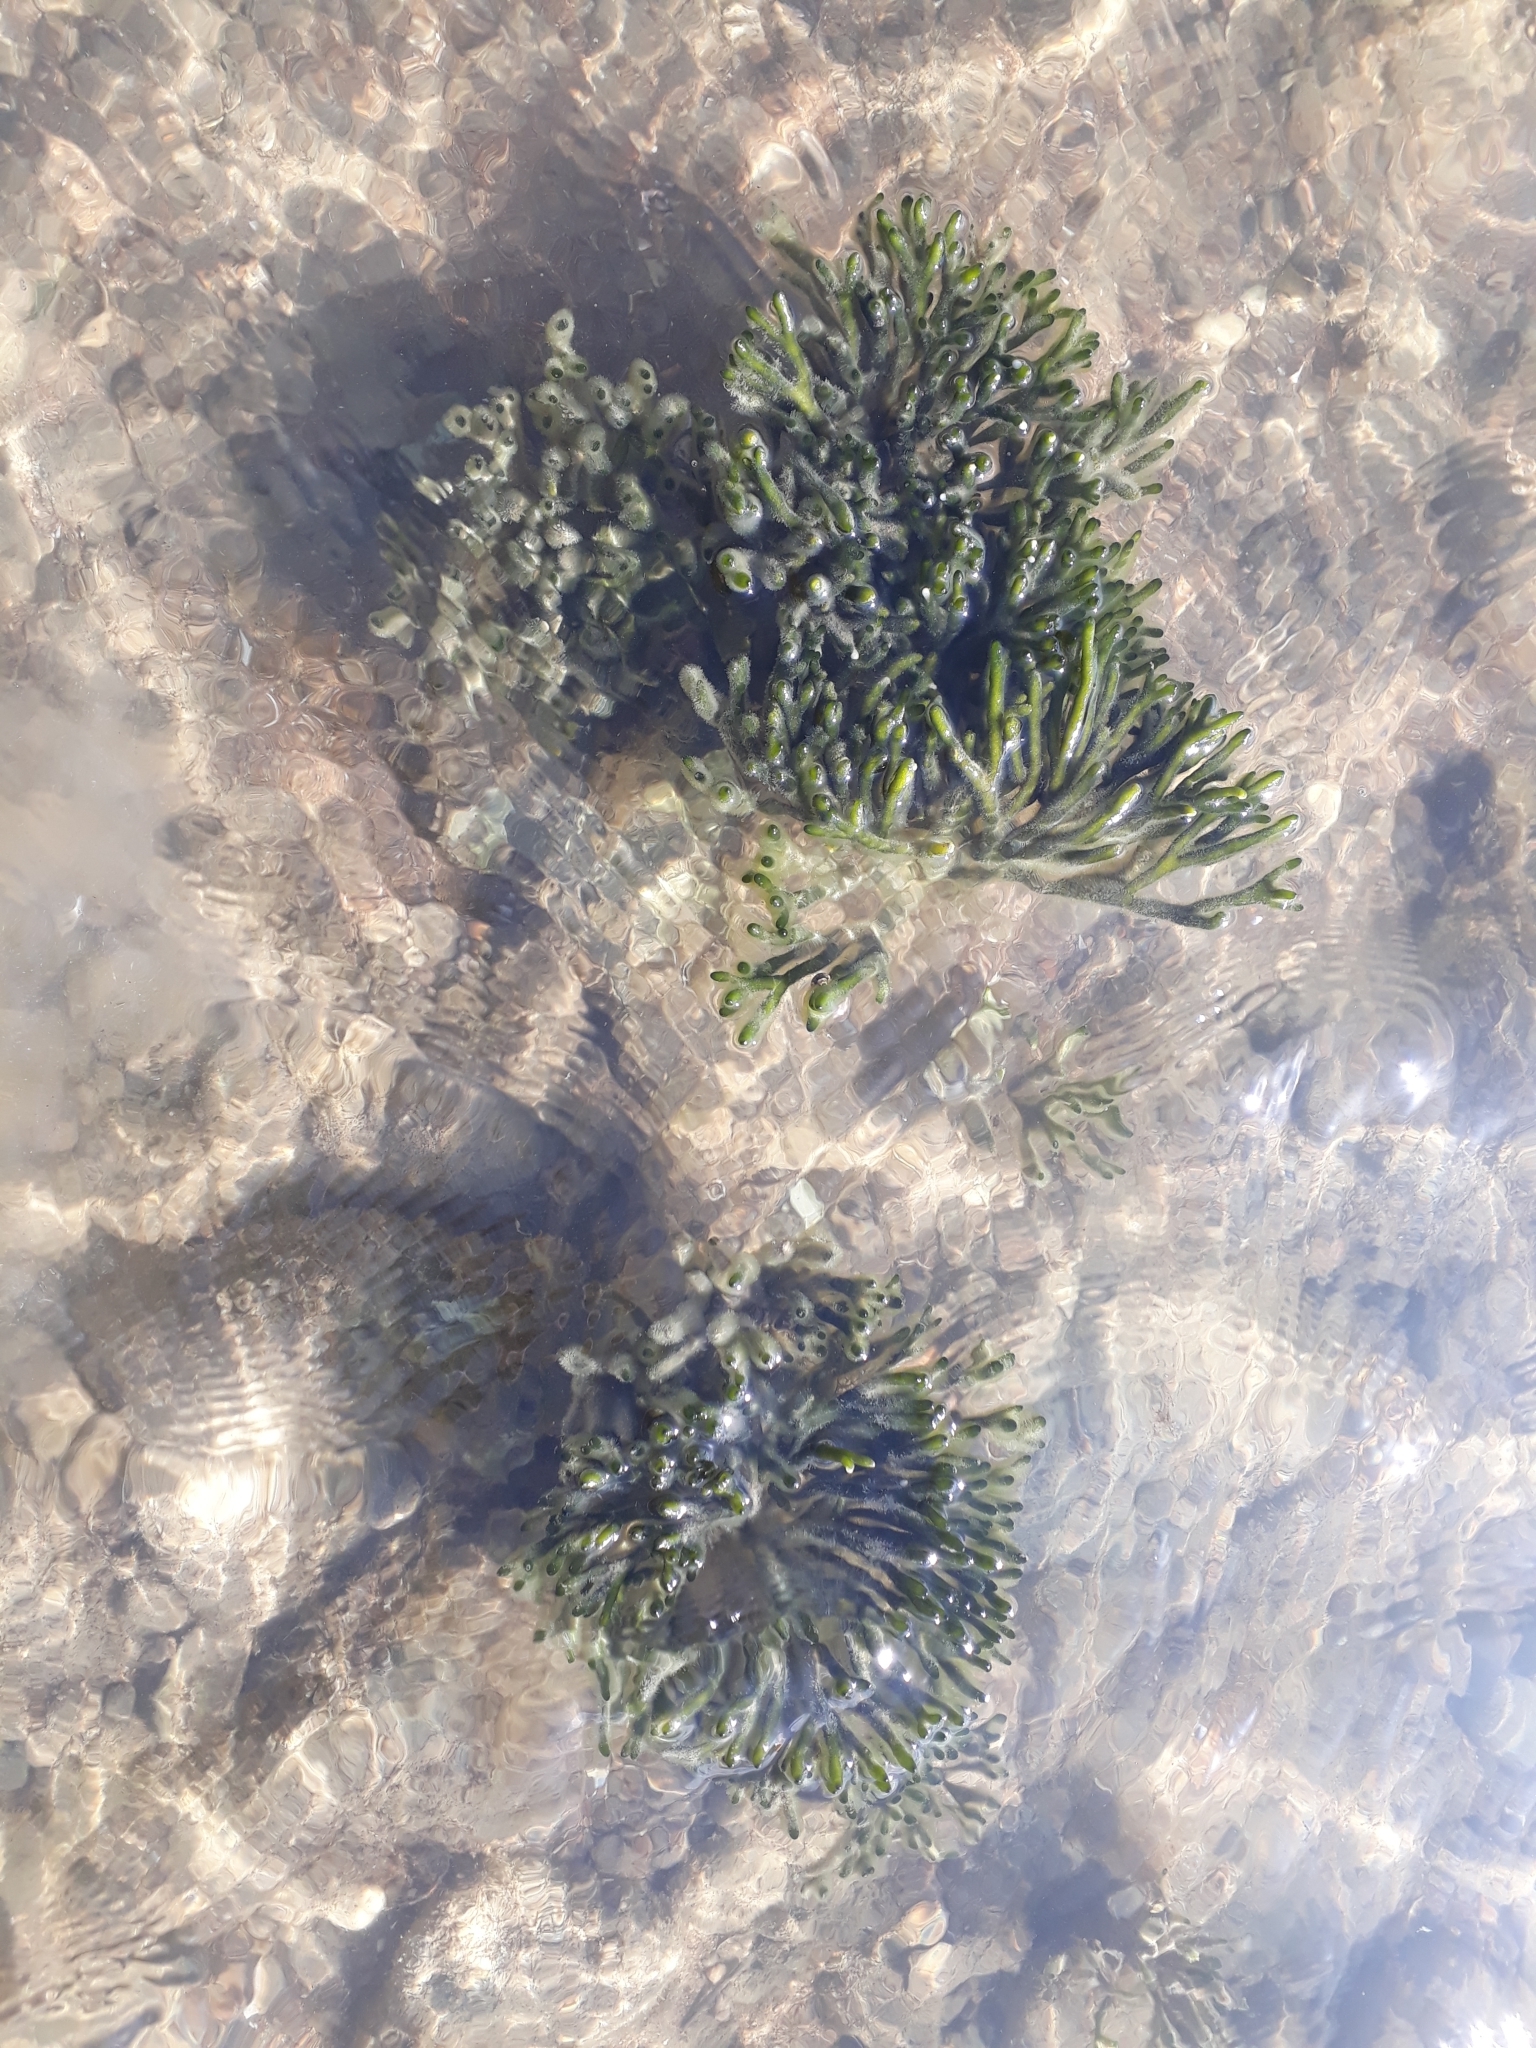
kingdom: Plantae
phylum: Chlorophyta
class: Ulvophyceae
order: Bryopsidales
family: Codiaceae
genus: Codium
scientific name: Codium fragile
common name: Dead man's fingers
